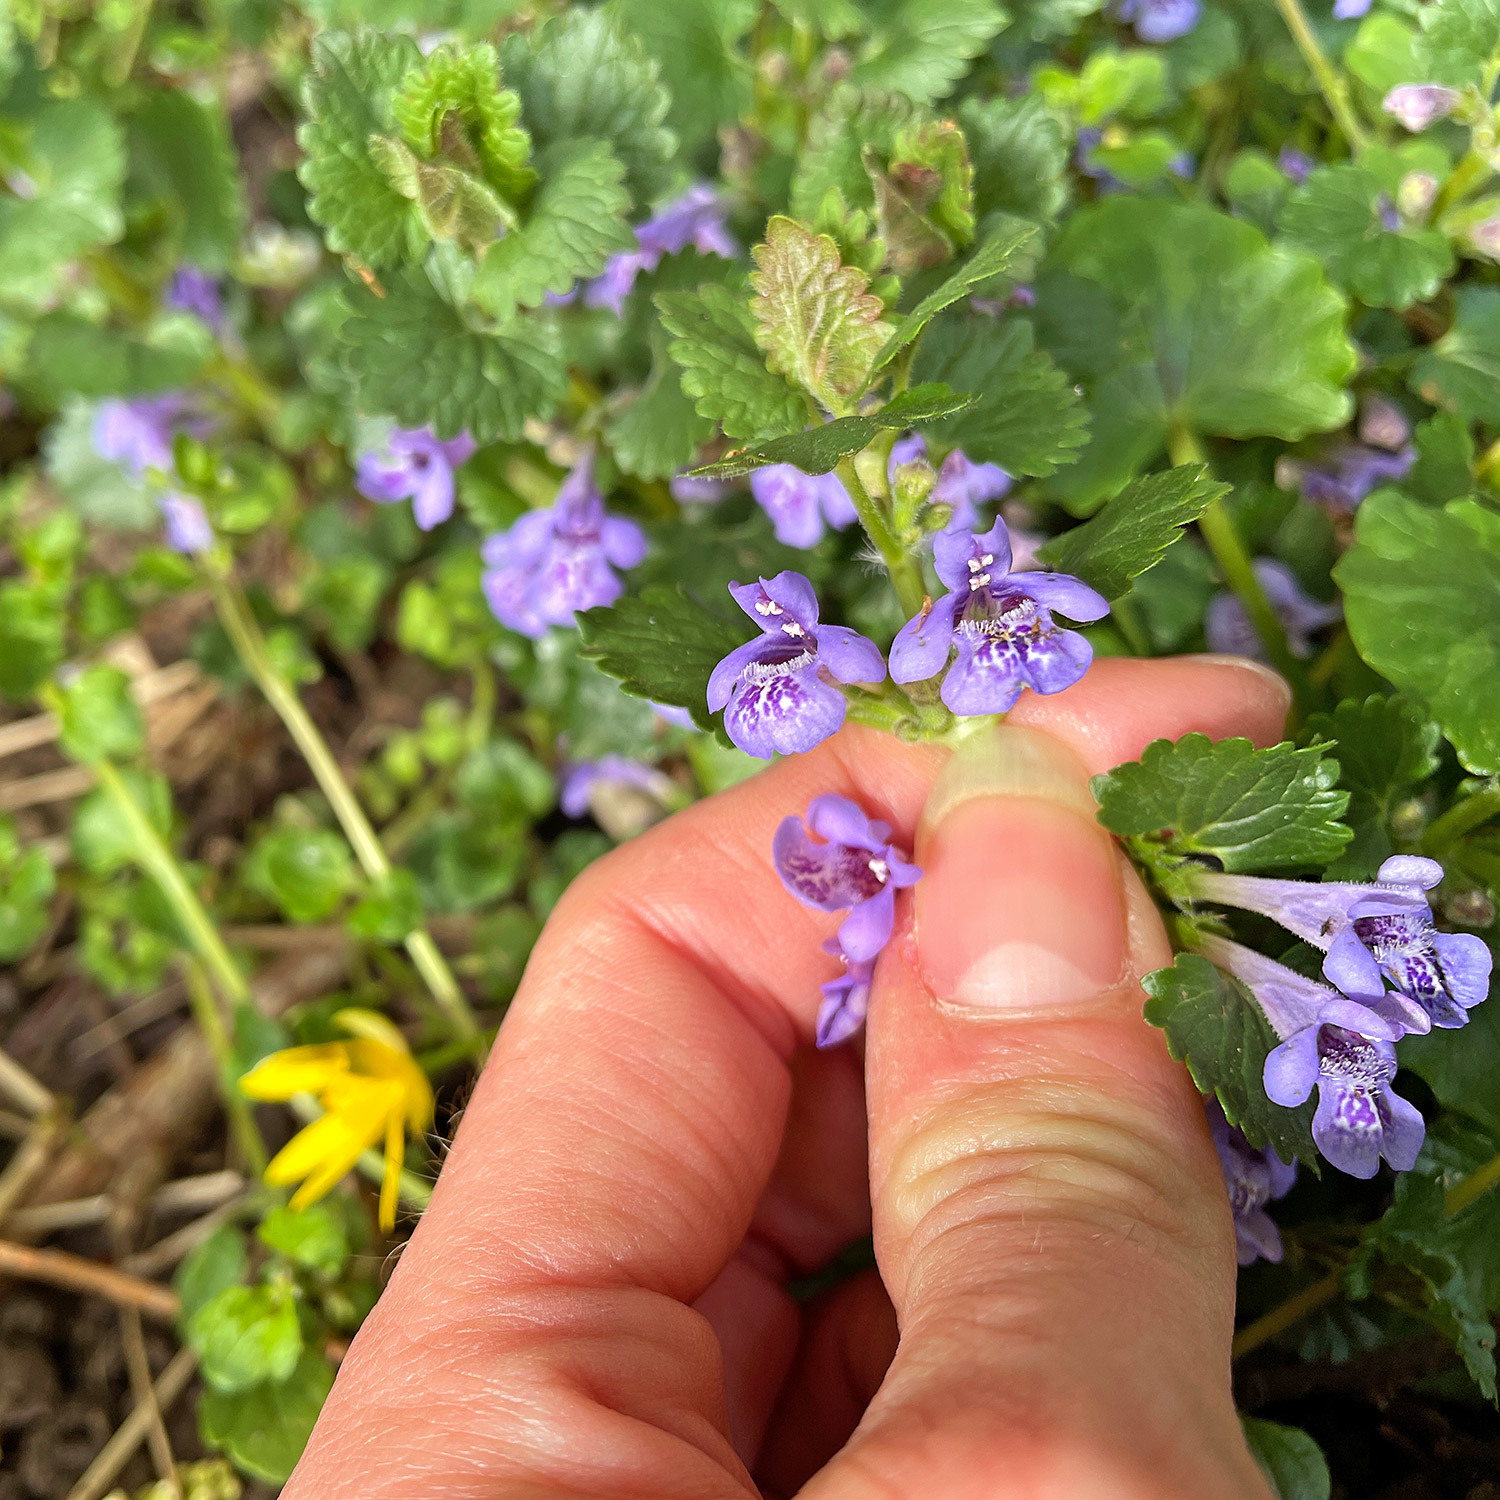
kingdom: Plantae
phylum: Tracheophyta
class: Magnoliopsida
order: Lamiales
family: Lamiaceae
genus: Glechoma
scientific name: Glechoma hederacea
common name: Ground ivy
